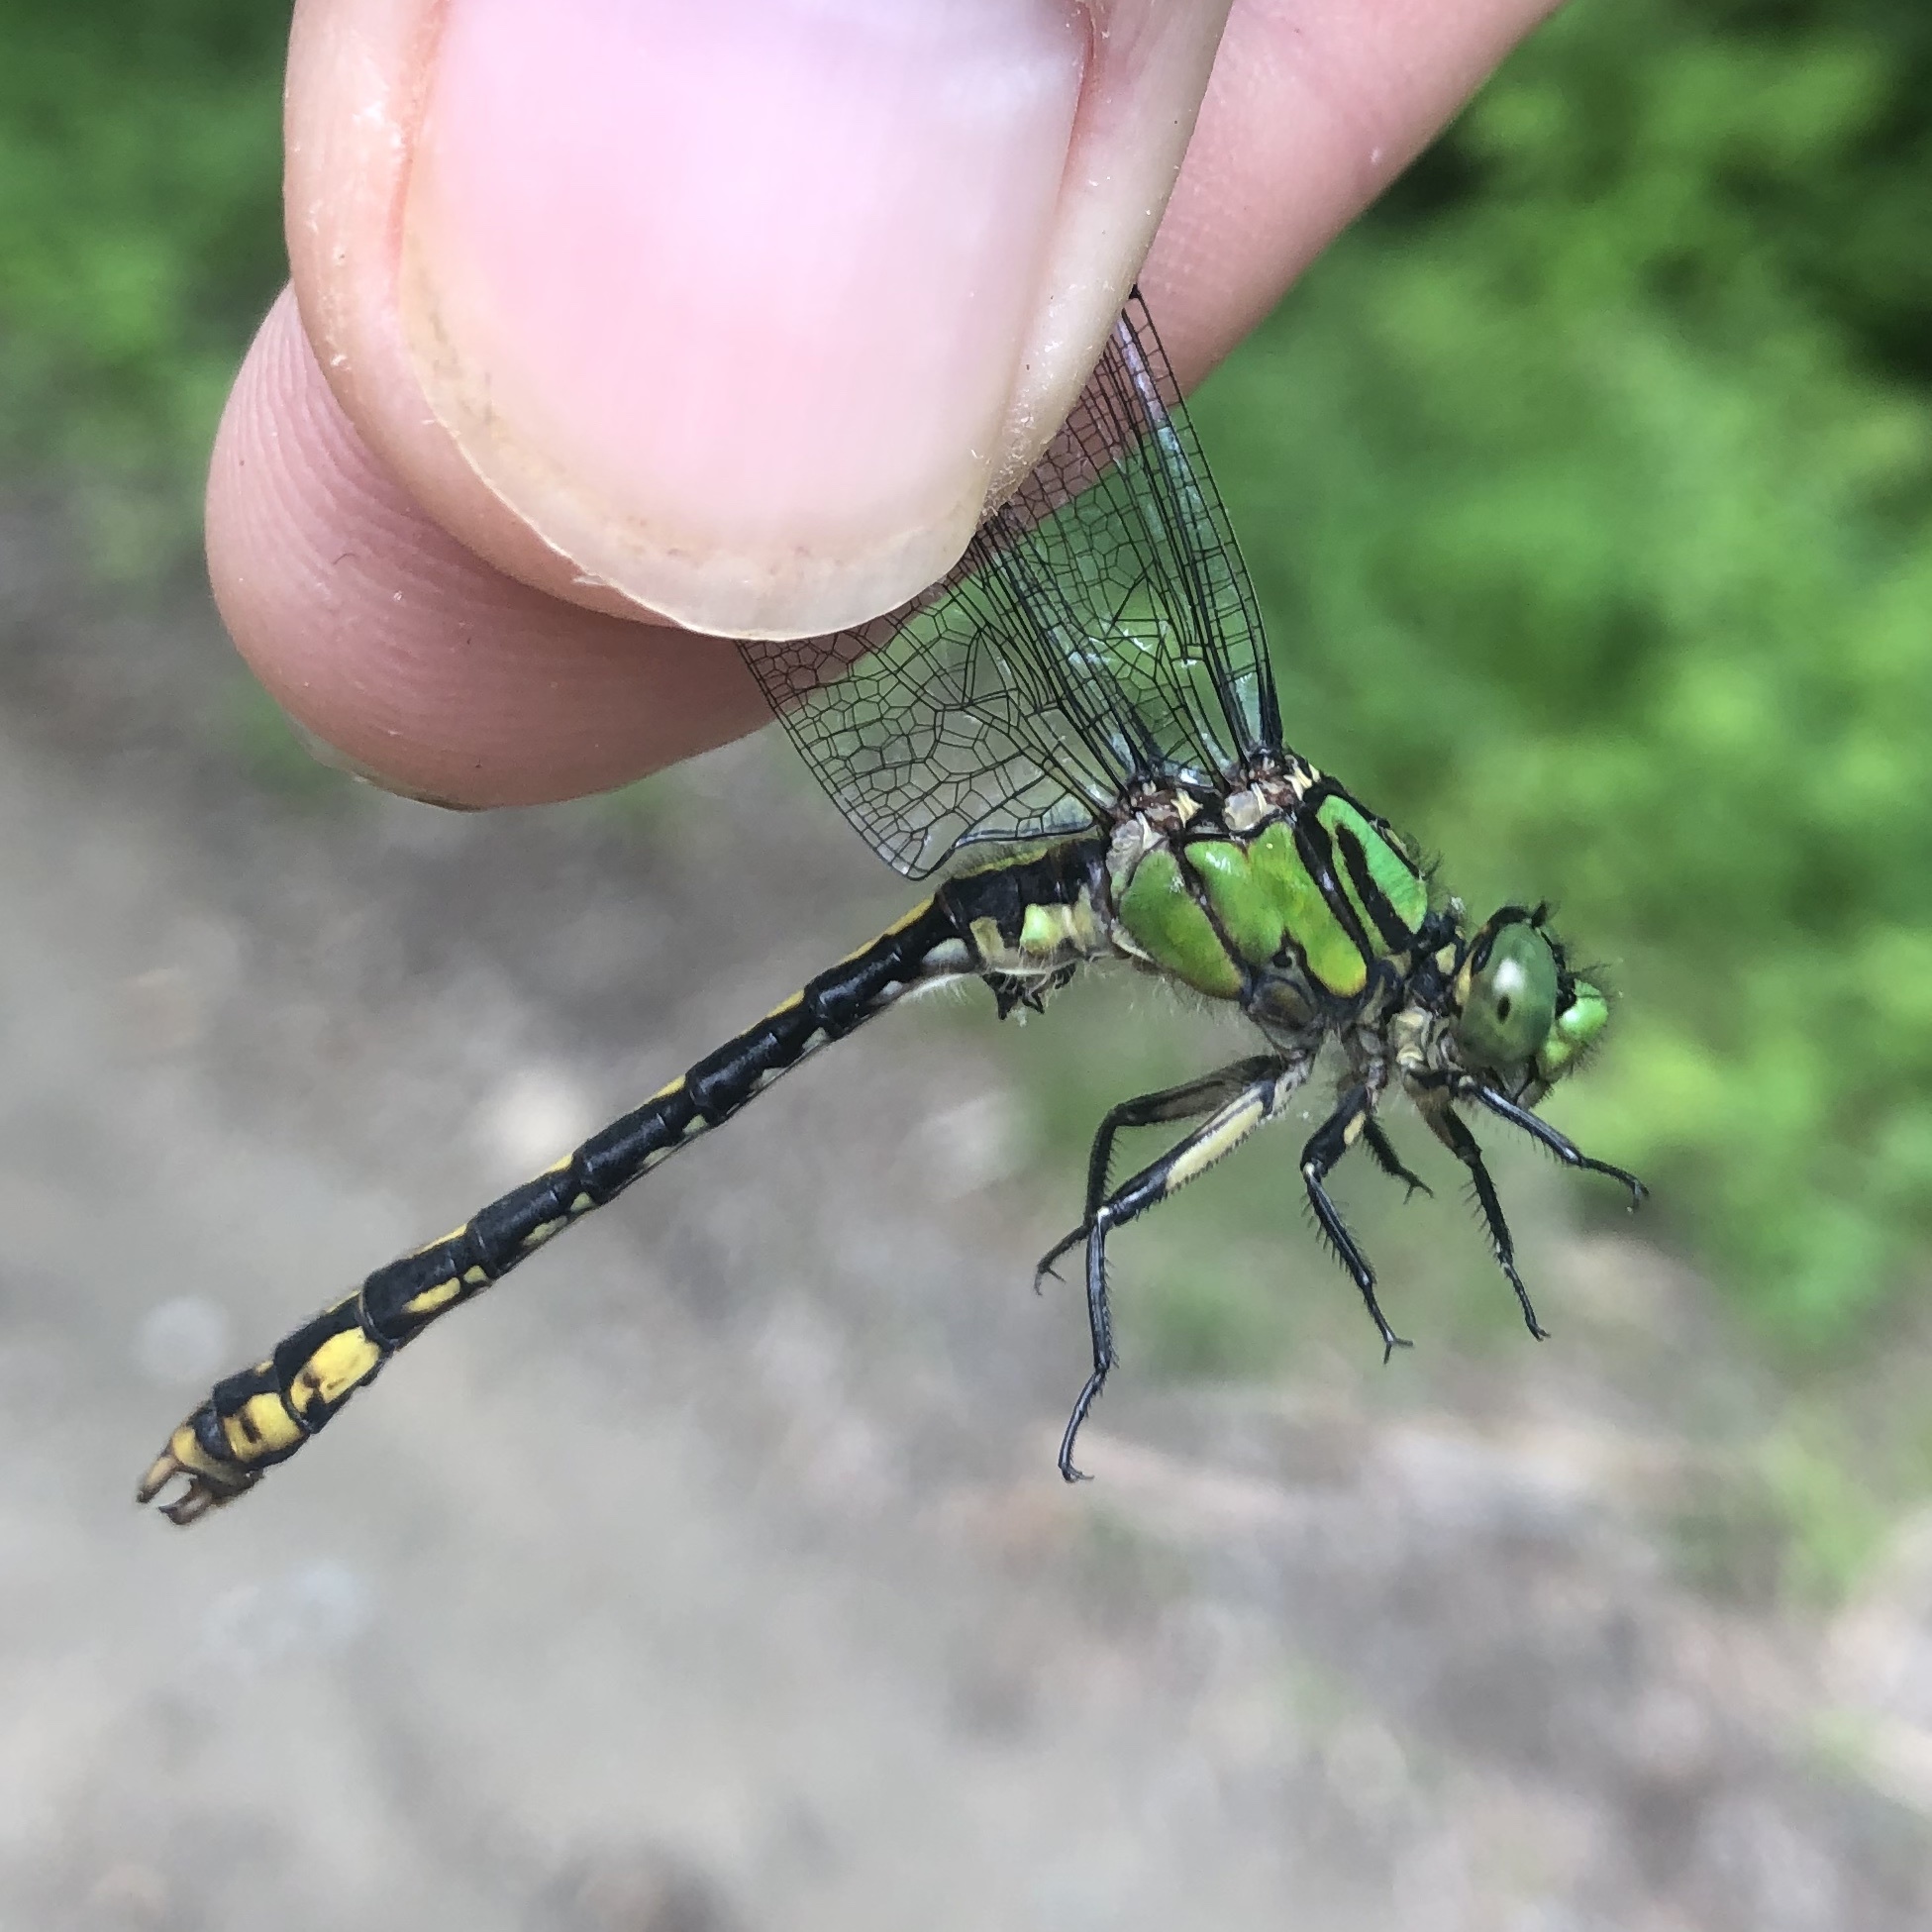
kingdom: Animalia
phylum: Arthropoda
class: Insecta
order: Odonata
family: Gomphidae
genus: Ophiogomphus
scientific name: Ophiogomphus mainensis
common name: Maine snaketail
